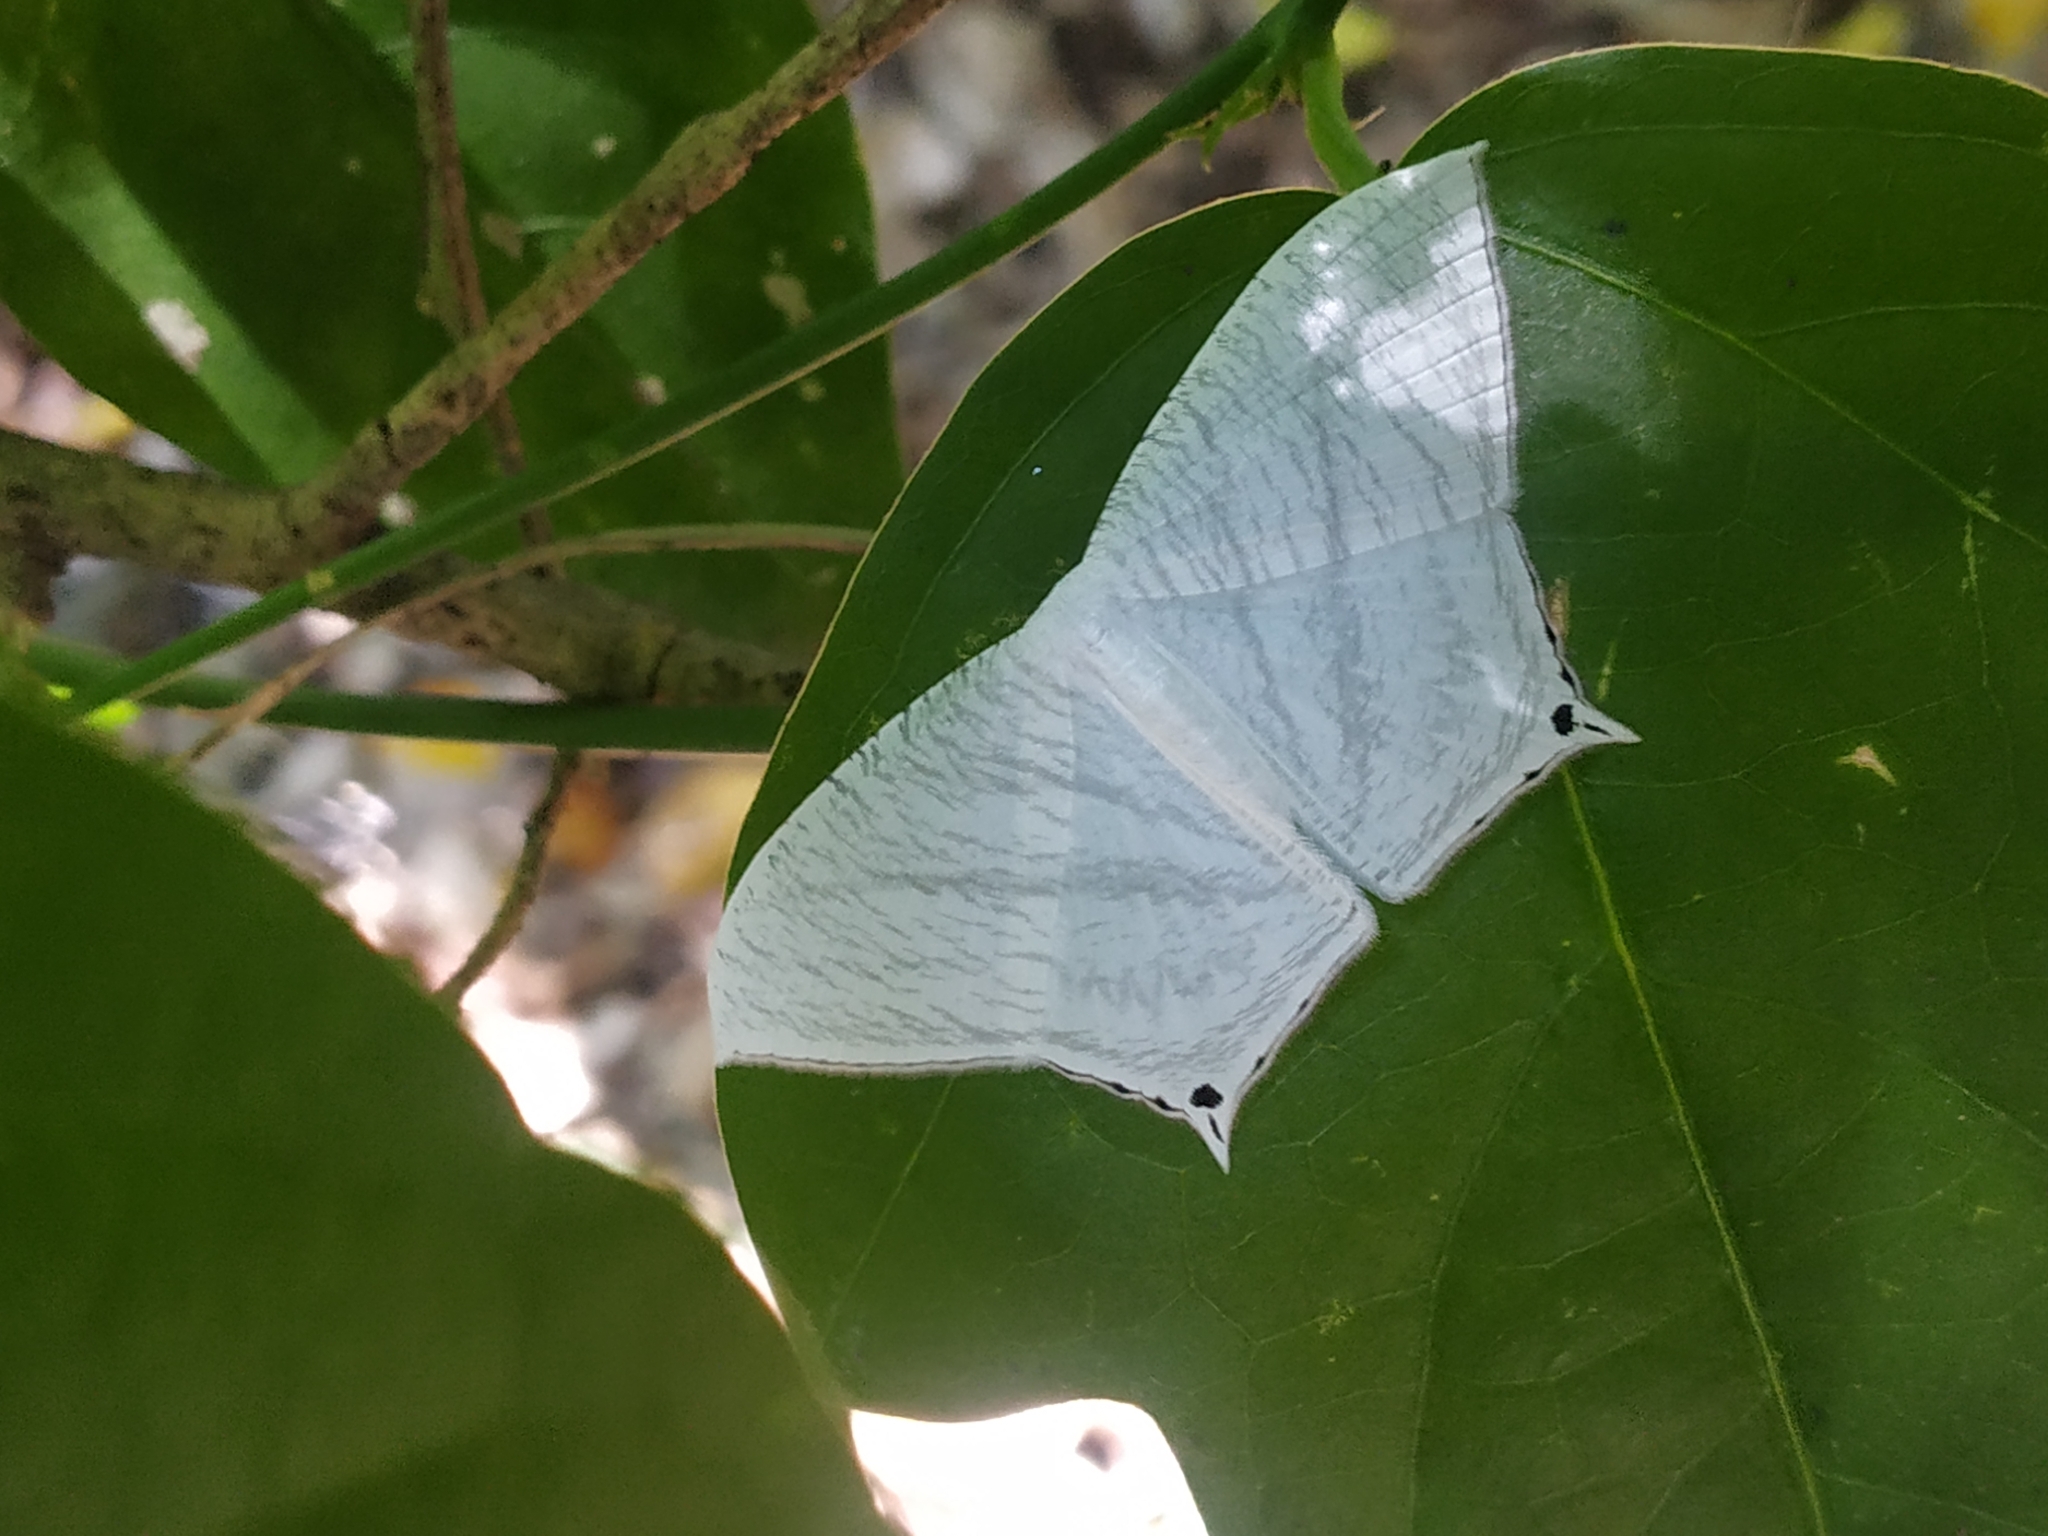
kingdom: Animalia
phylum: Arthropoda
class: Insecta
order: Lepidoptera
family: Uraniidae
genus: Micronia
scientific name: Micronia aculeata
